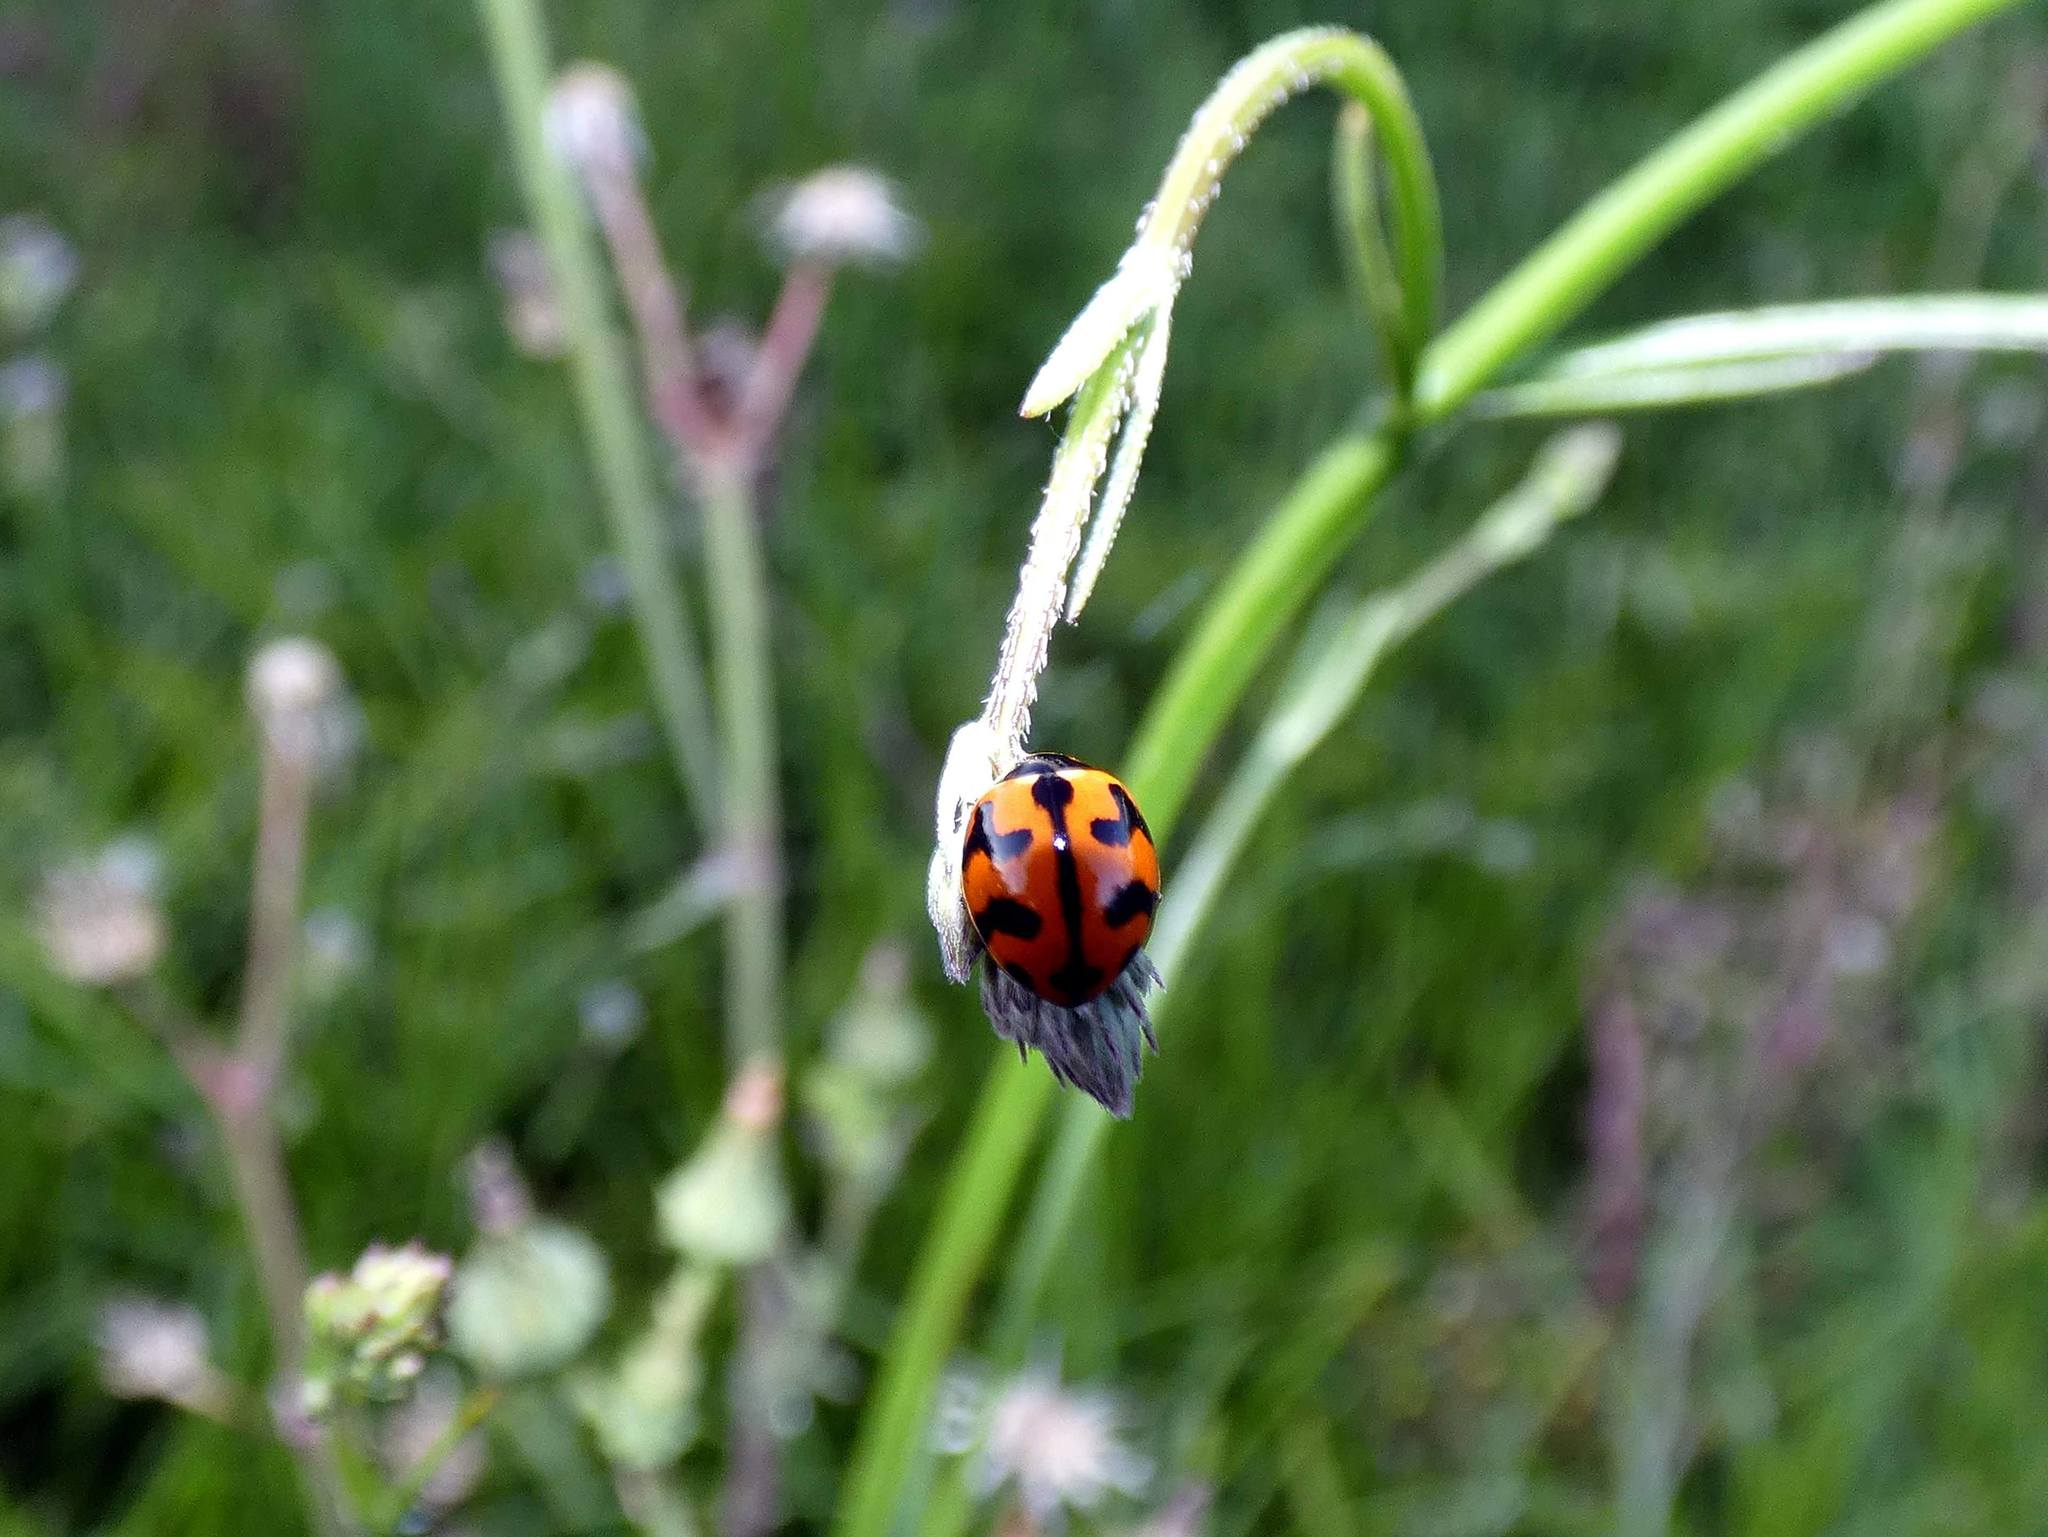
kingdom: Animalia
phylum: Arthropoda
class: Insecta
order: Coleoptera
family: Coccinellidae
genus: Coccinella
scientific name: Coccinella transversalis
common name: Transverse lady beetle
